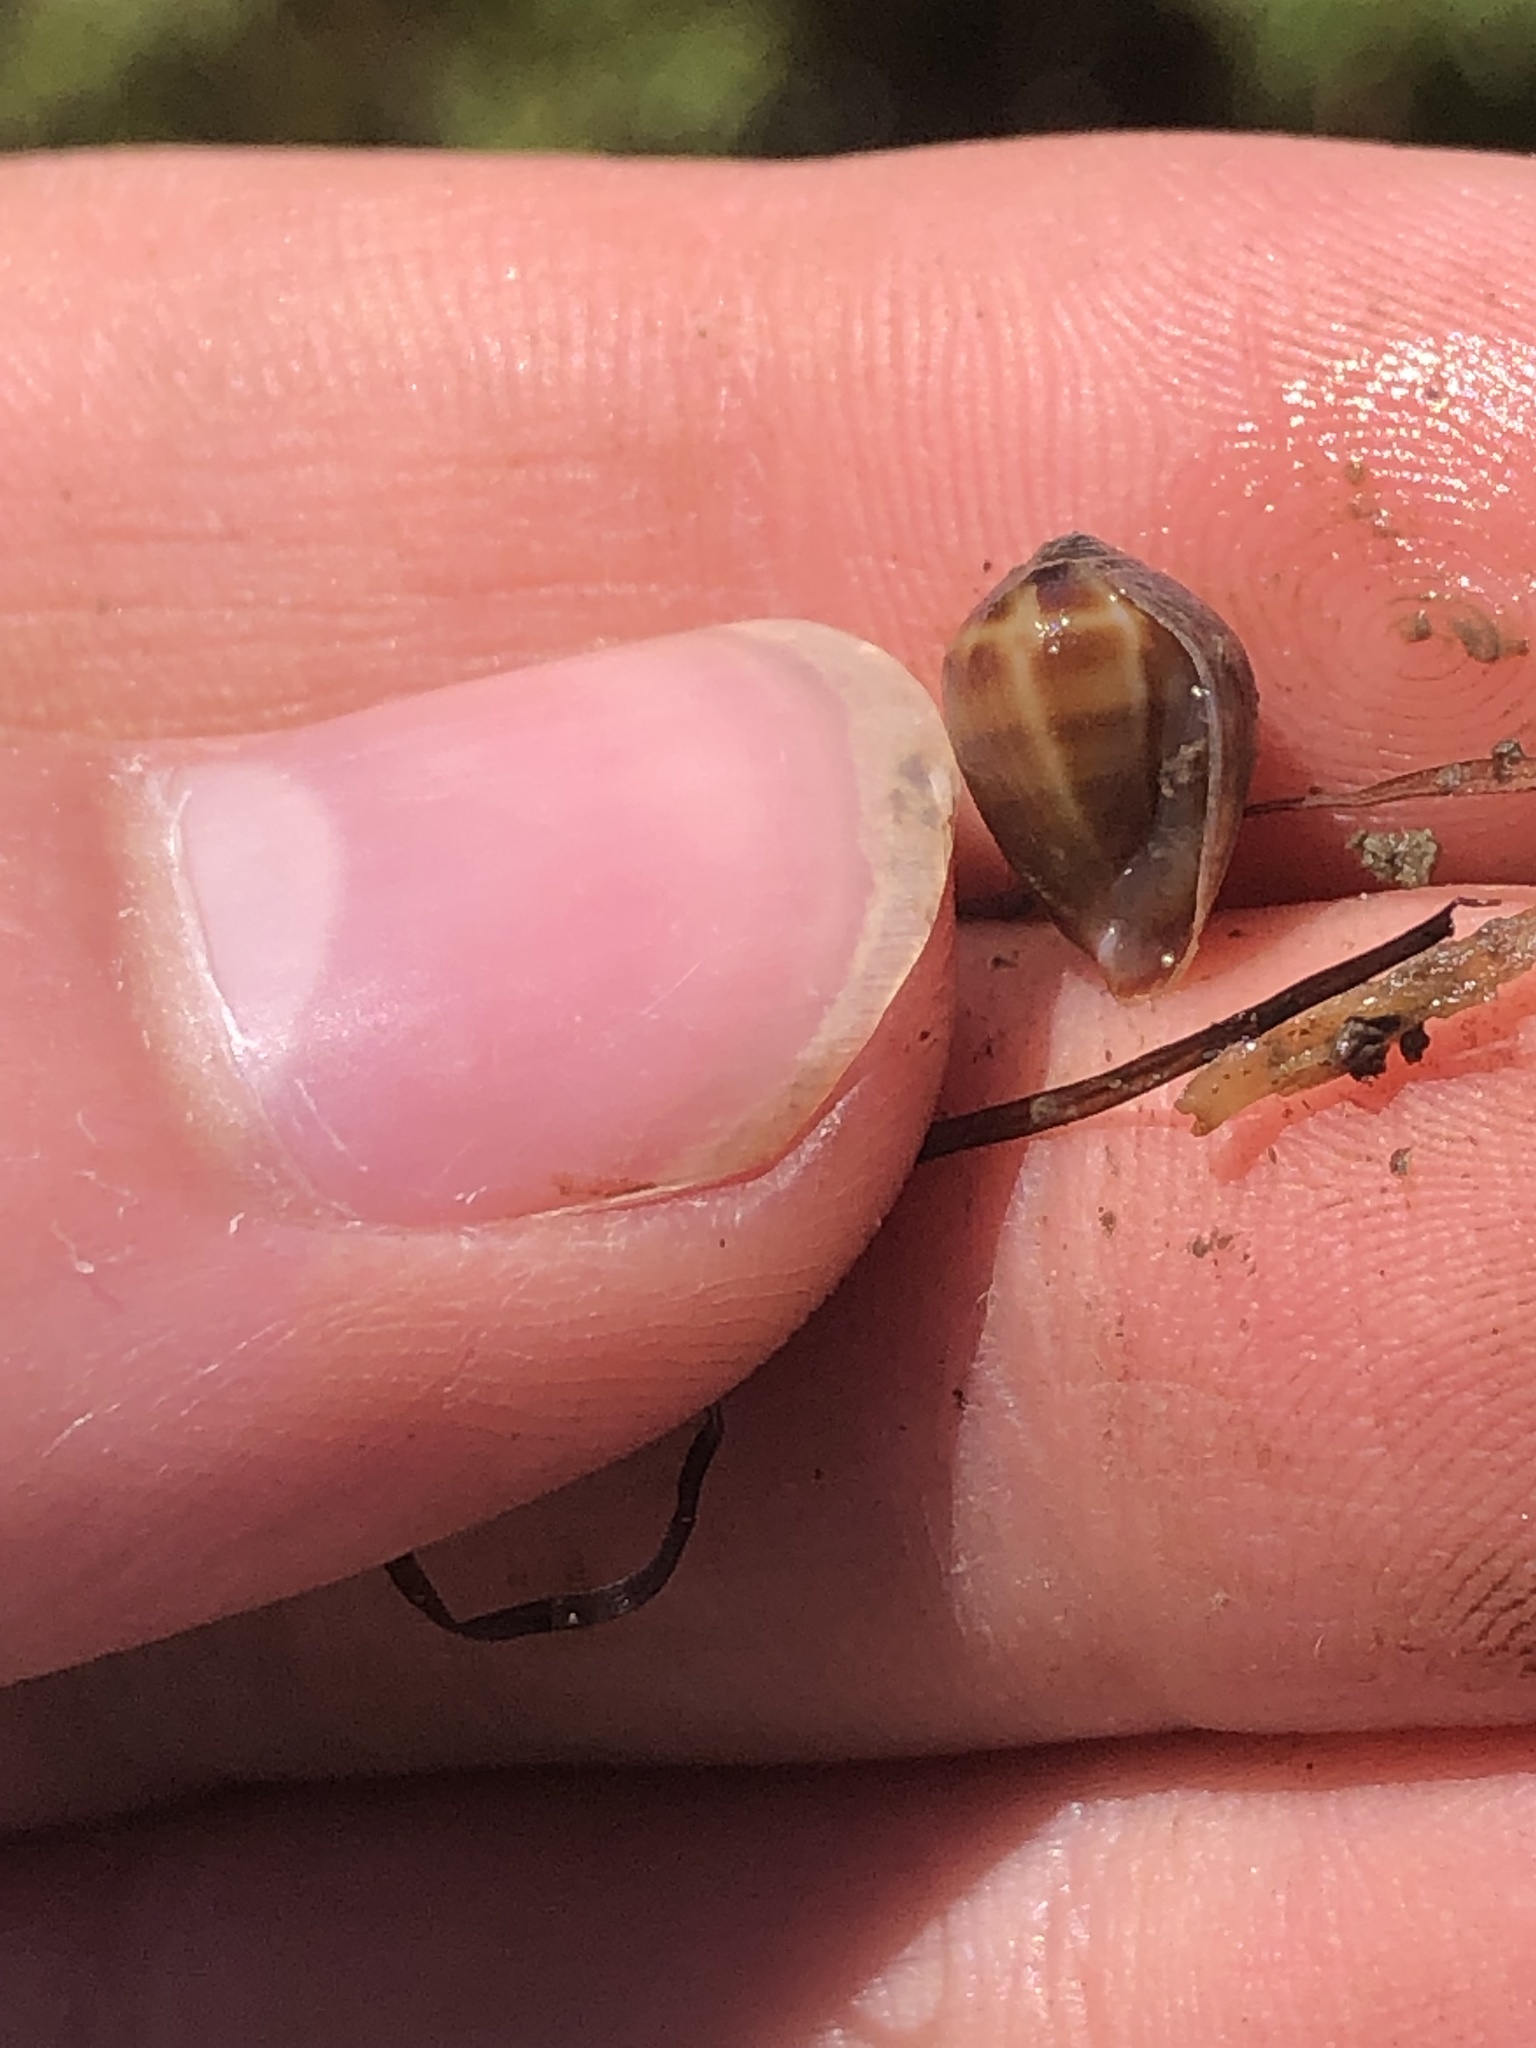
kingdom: Animalia
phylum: Mollusca
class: Gastropoda
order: Ellobiida
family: Ellobiidae
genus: Melampus
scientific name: Melampus olivaceus
